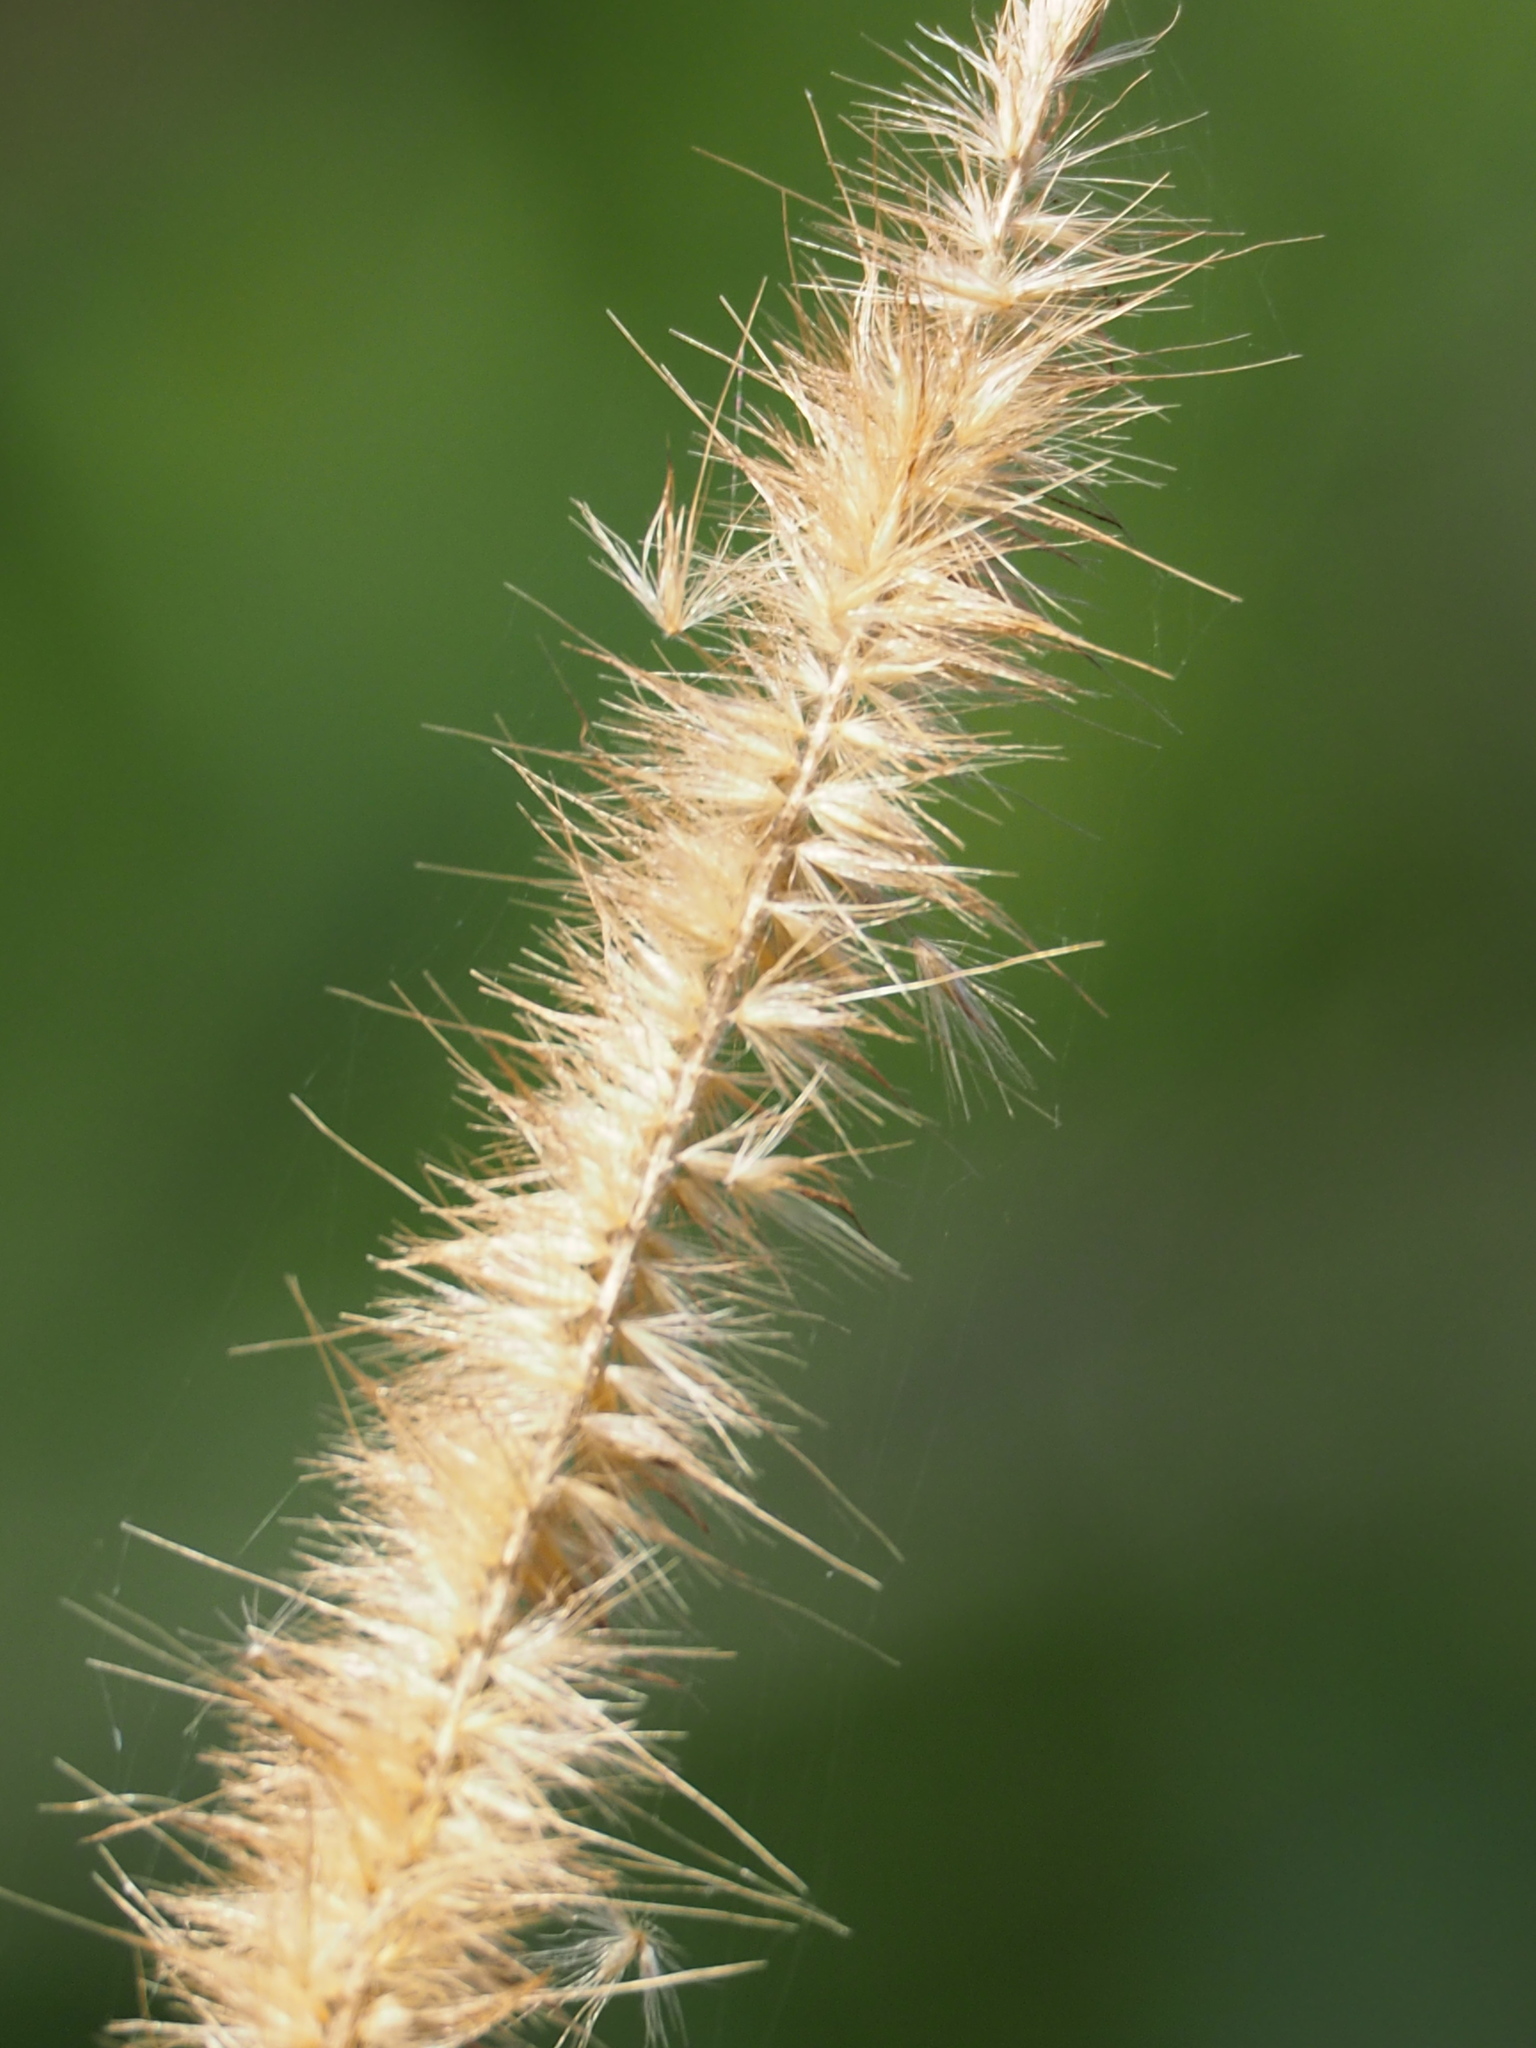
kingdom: Plantae
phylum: Tracheophyta
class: Liliopsida
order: Poales
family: Poaceae
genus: Cenchrus
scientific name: Cenchrus purpureus
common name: Elephant grass
